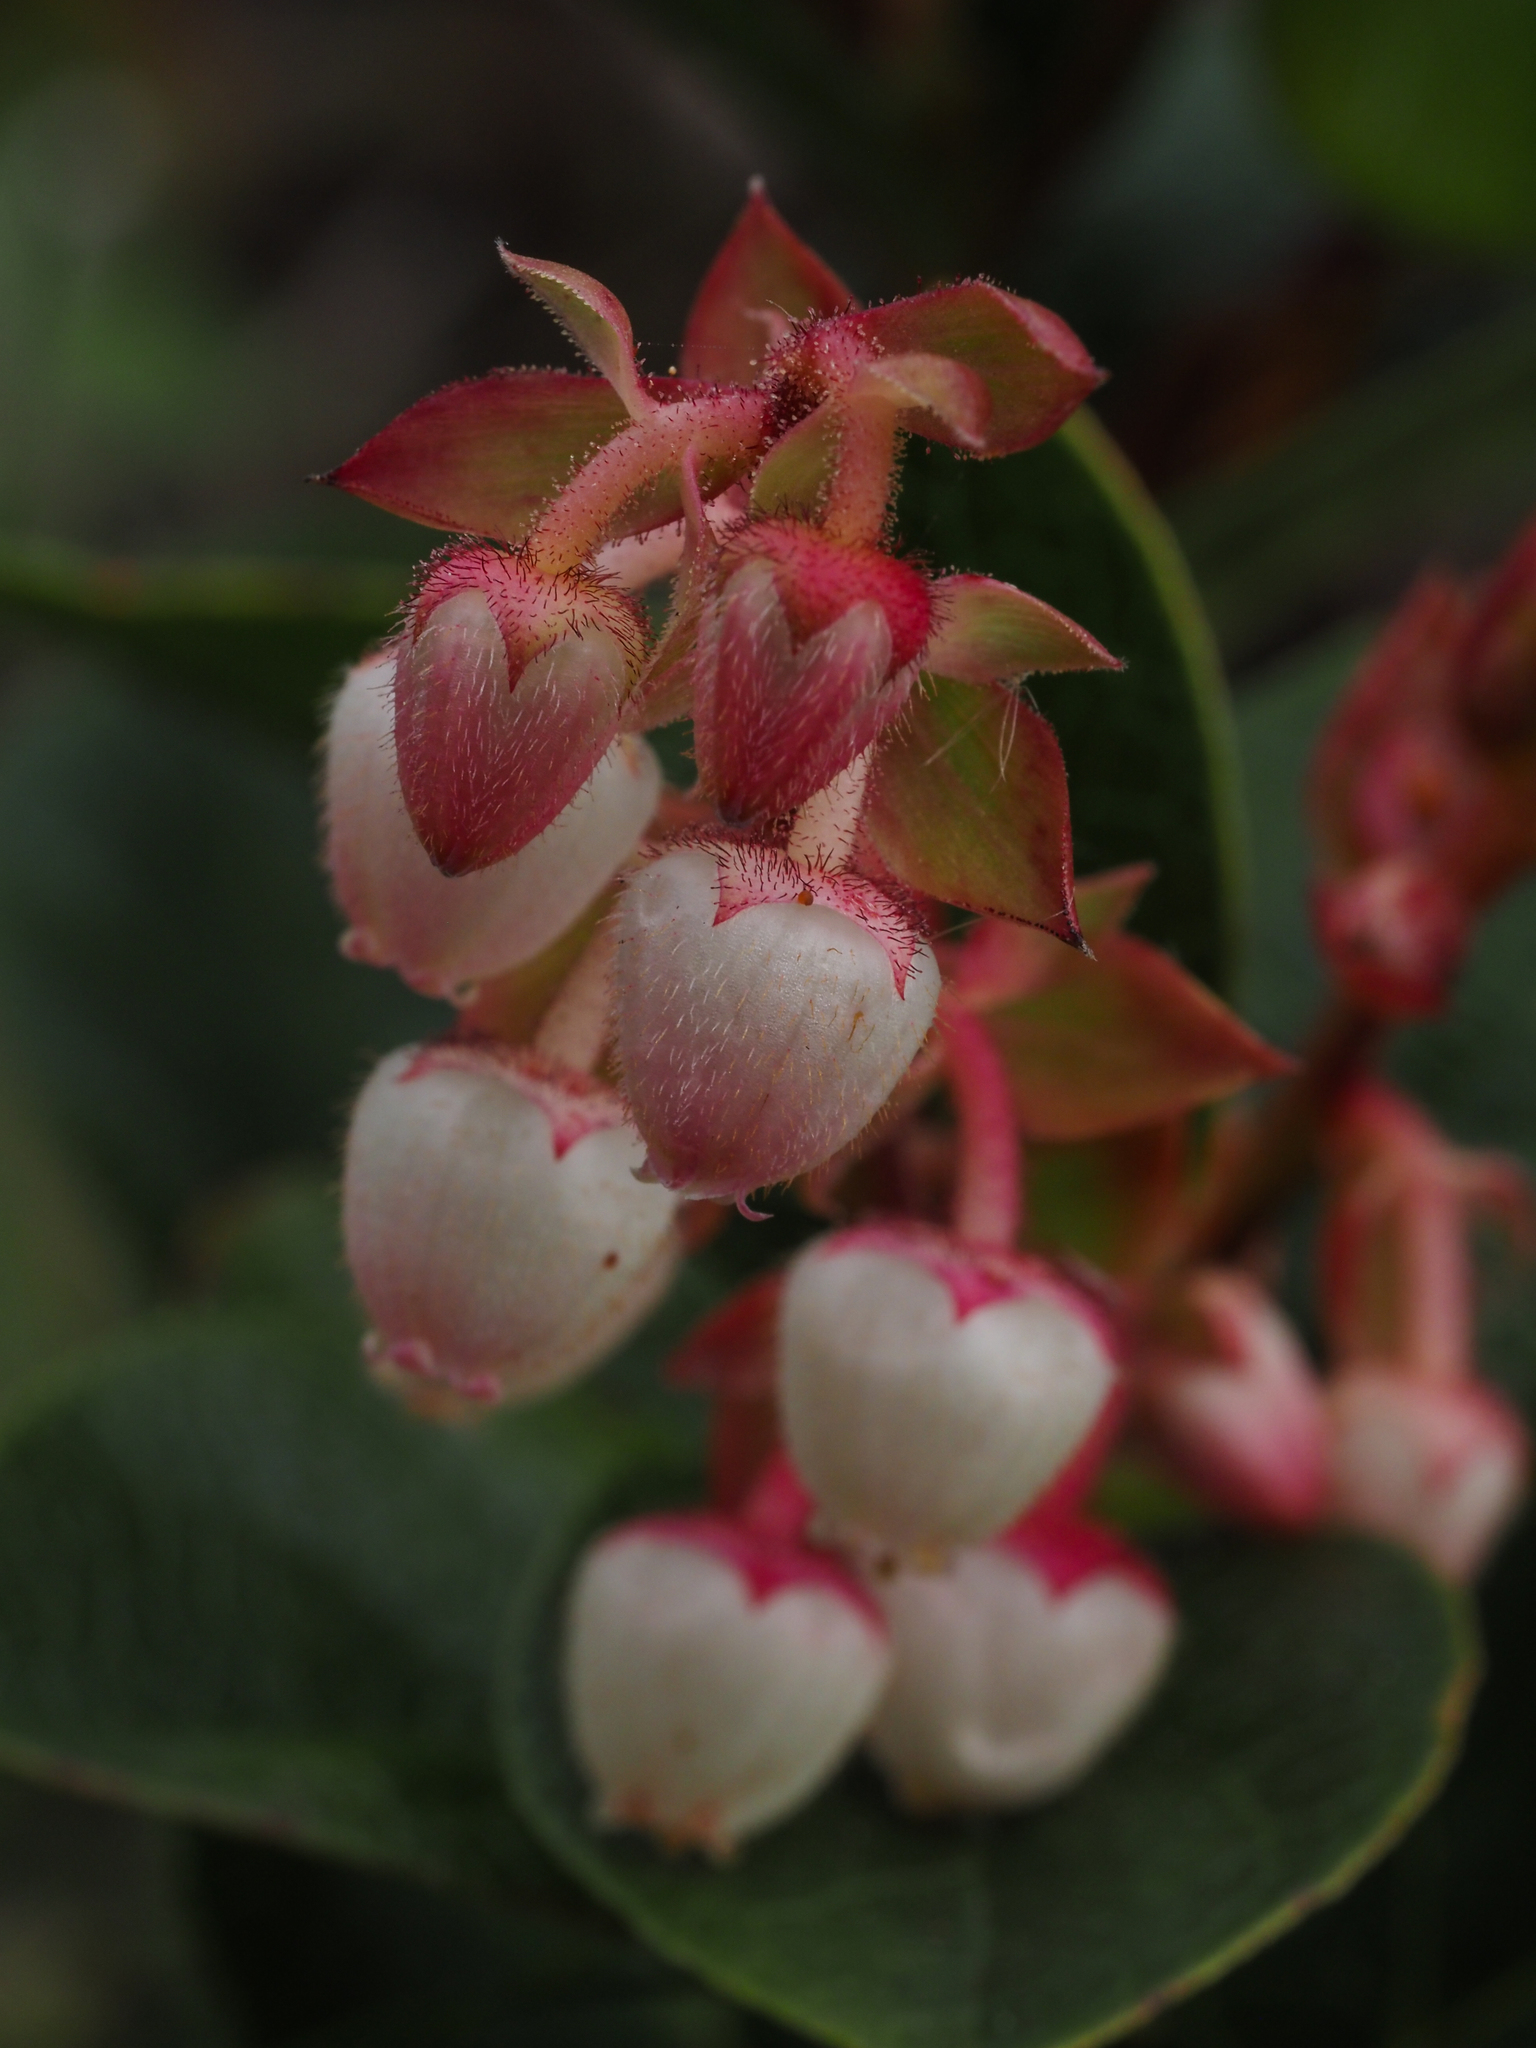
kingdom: Plantae
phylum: Tracheophyta
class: Magnoliopsida
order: Ericales
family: Ericaceae
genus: Gaultheria
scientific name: Gaultheria shallon
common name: Shallon
